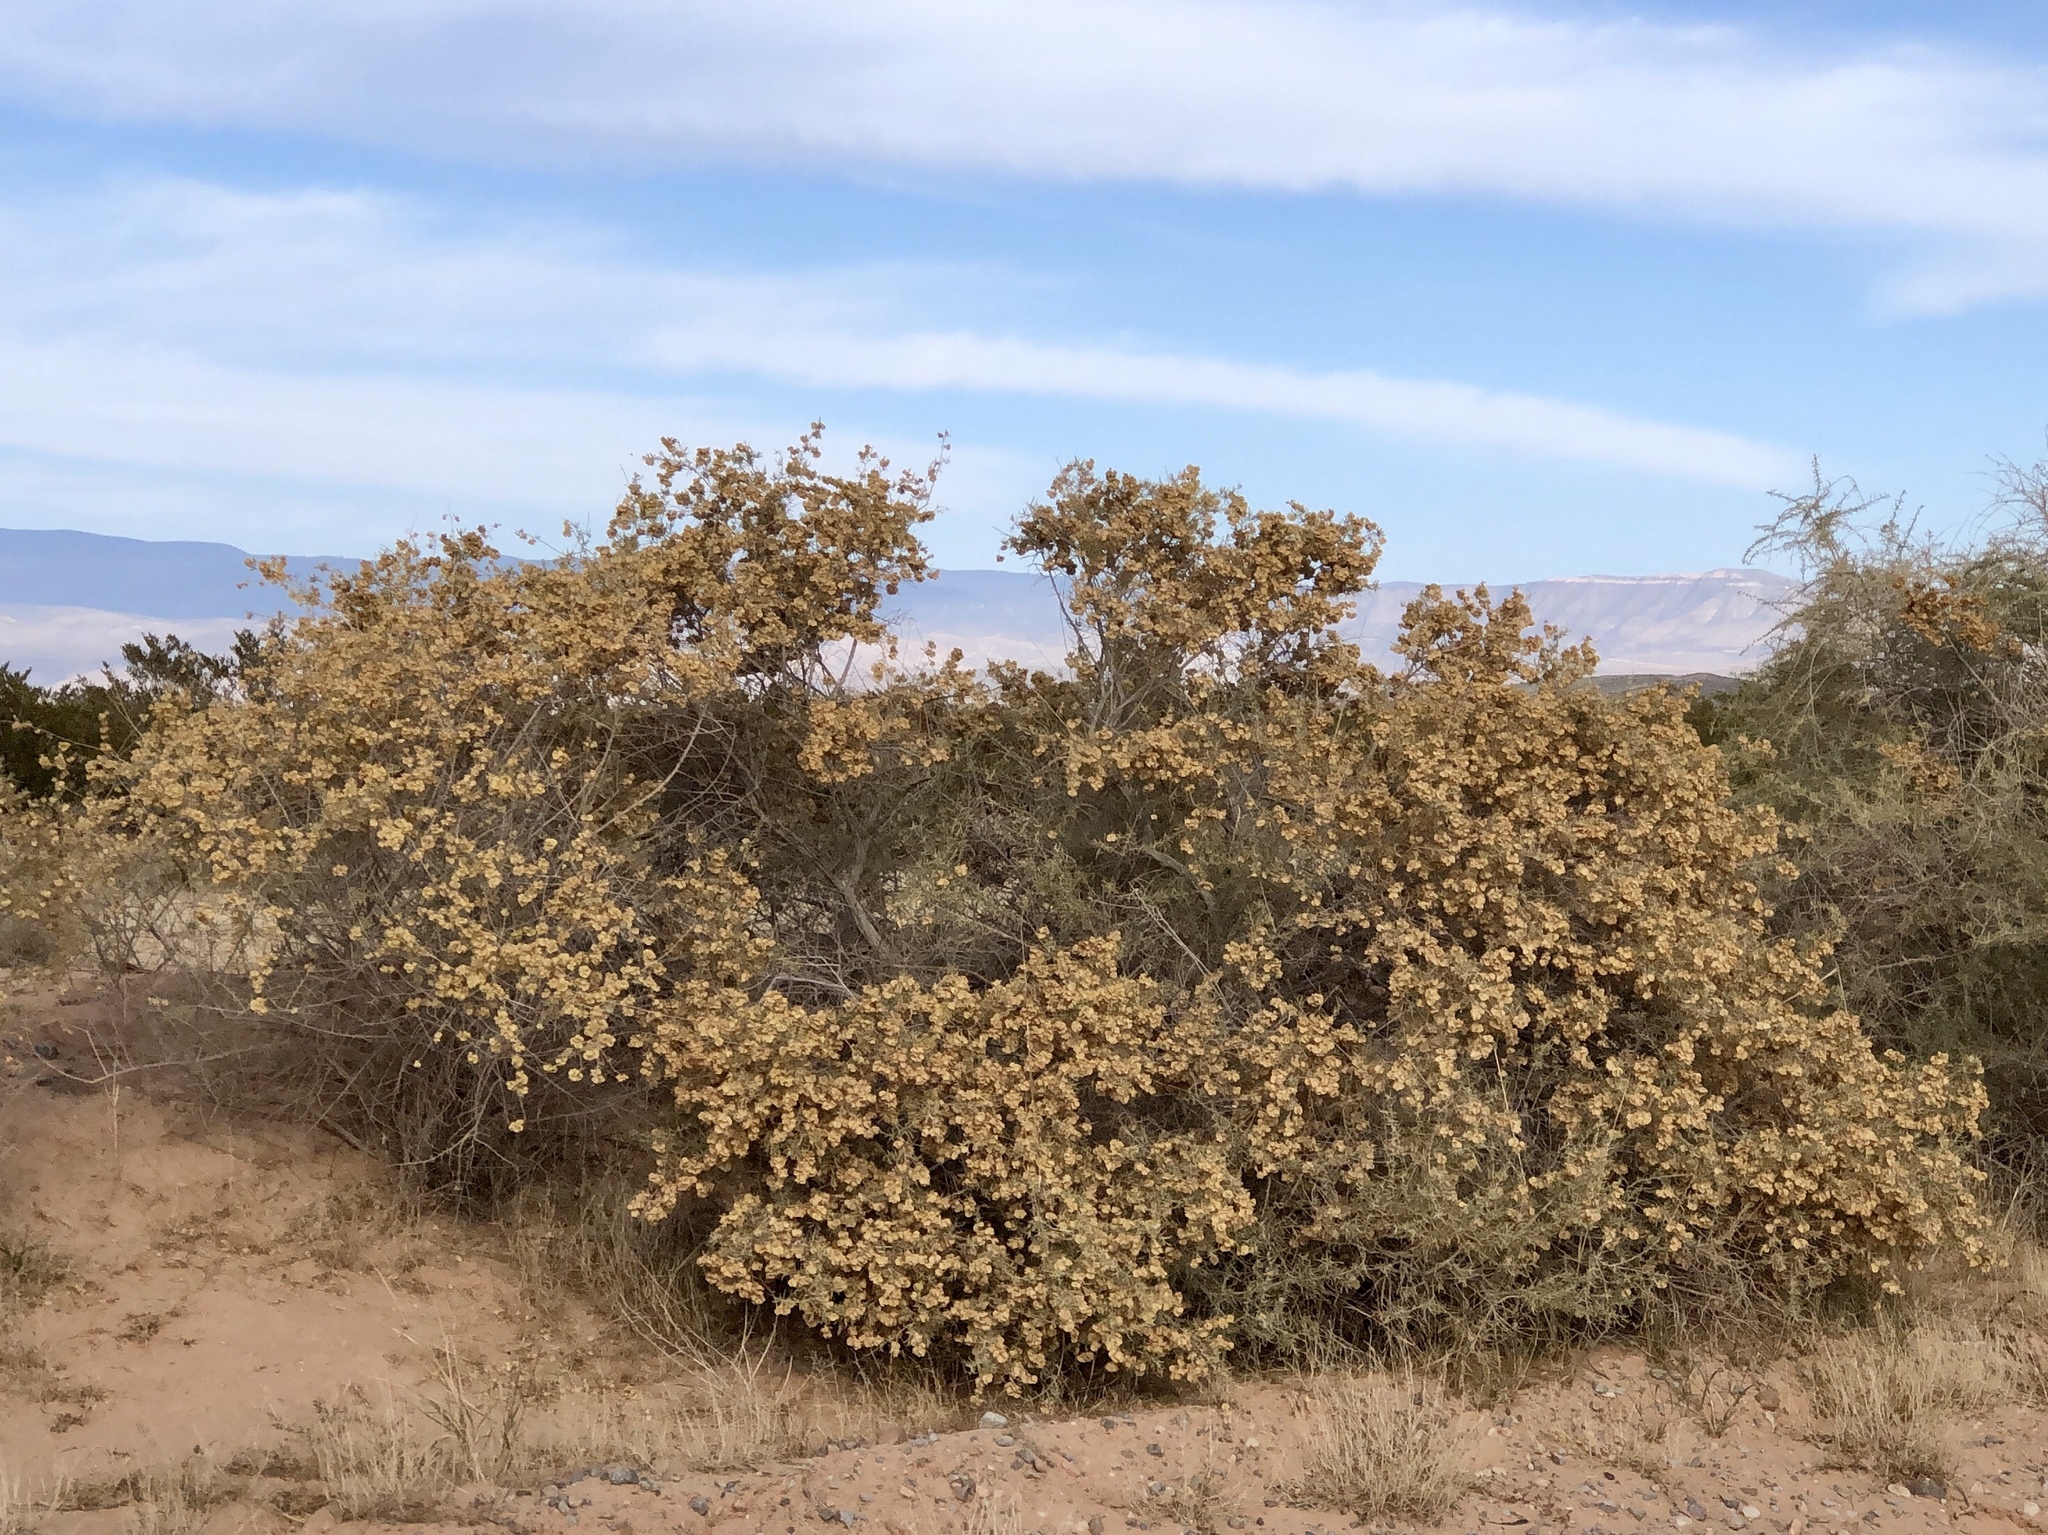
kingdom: Plantae
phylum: Tracheophyta
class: Magnoliopsida
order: Caryophyllales
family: Amaranthaceae
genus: Atriplex
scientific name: Atriplex canescens
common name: Four-wing saltbush
